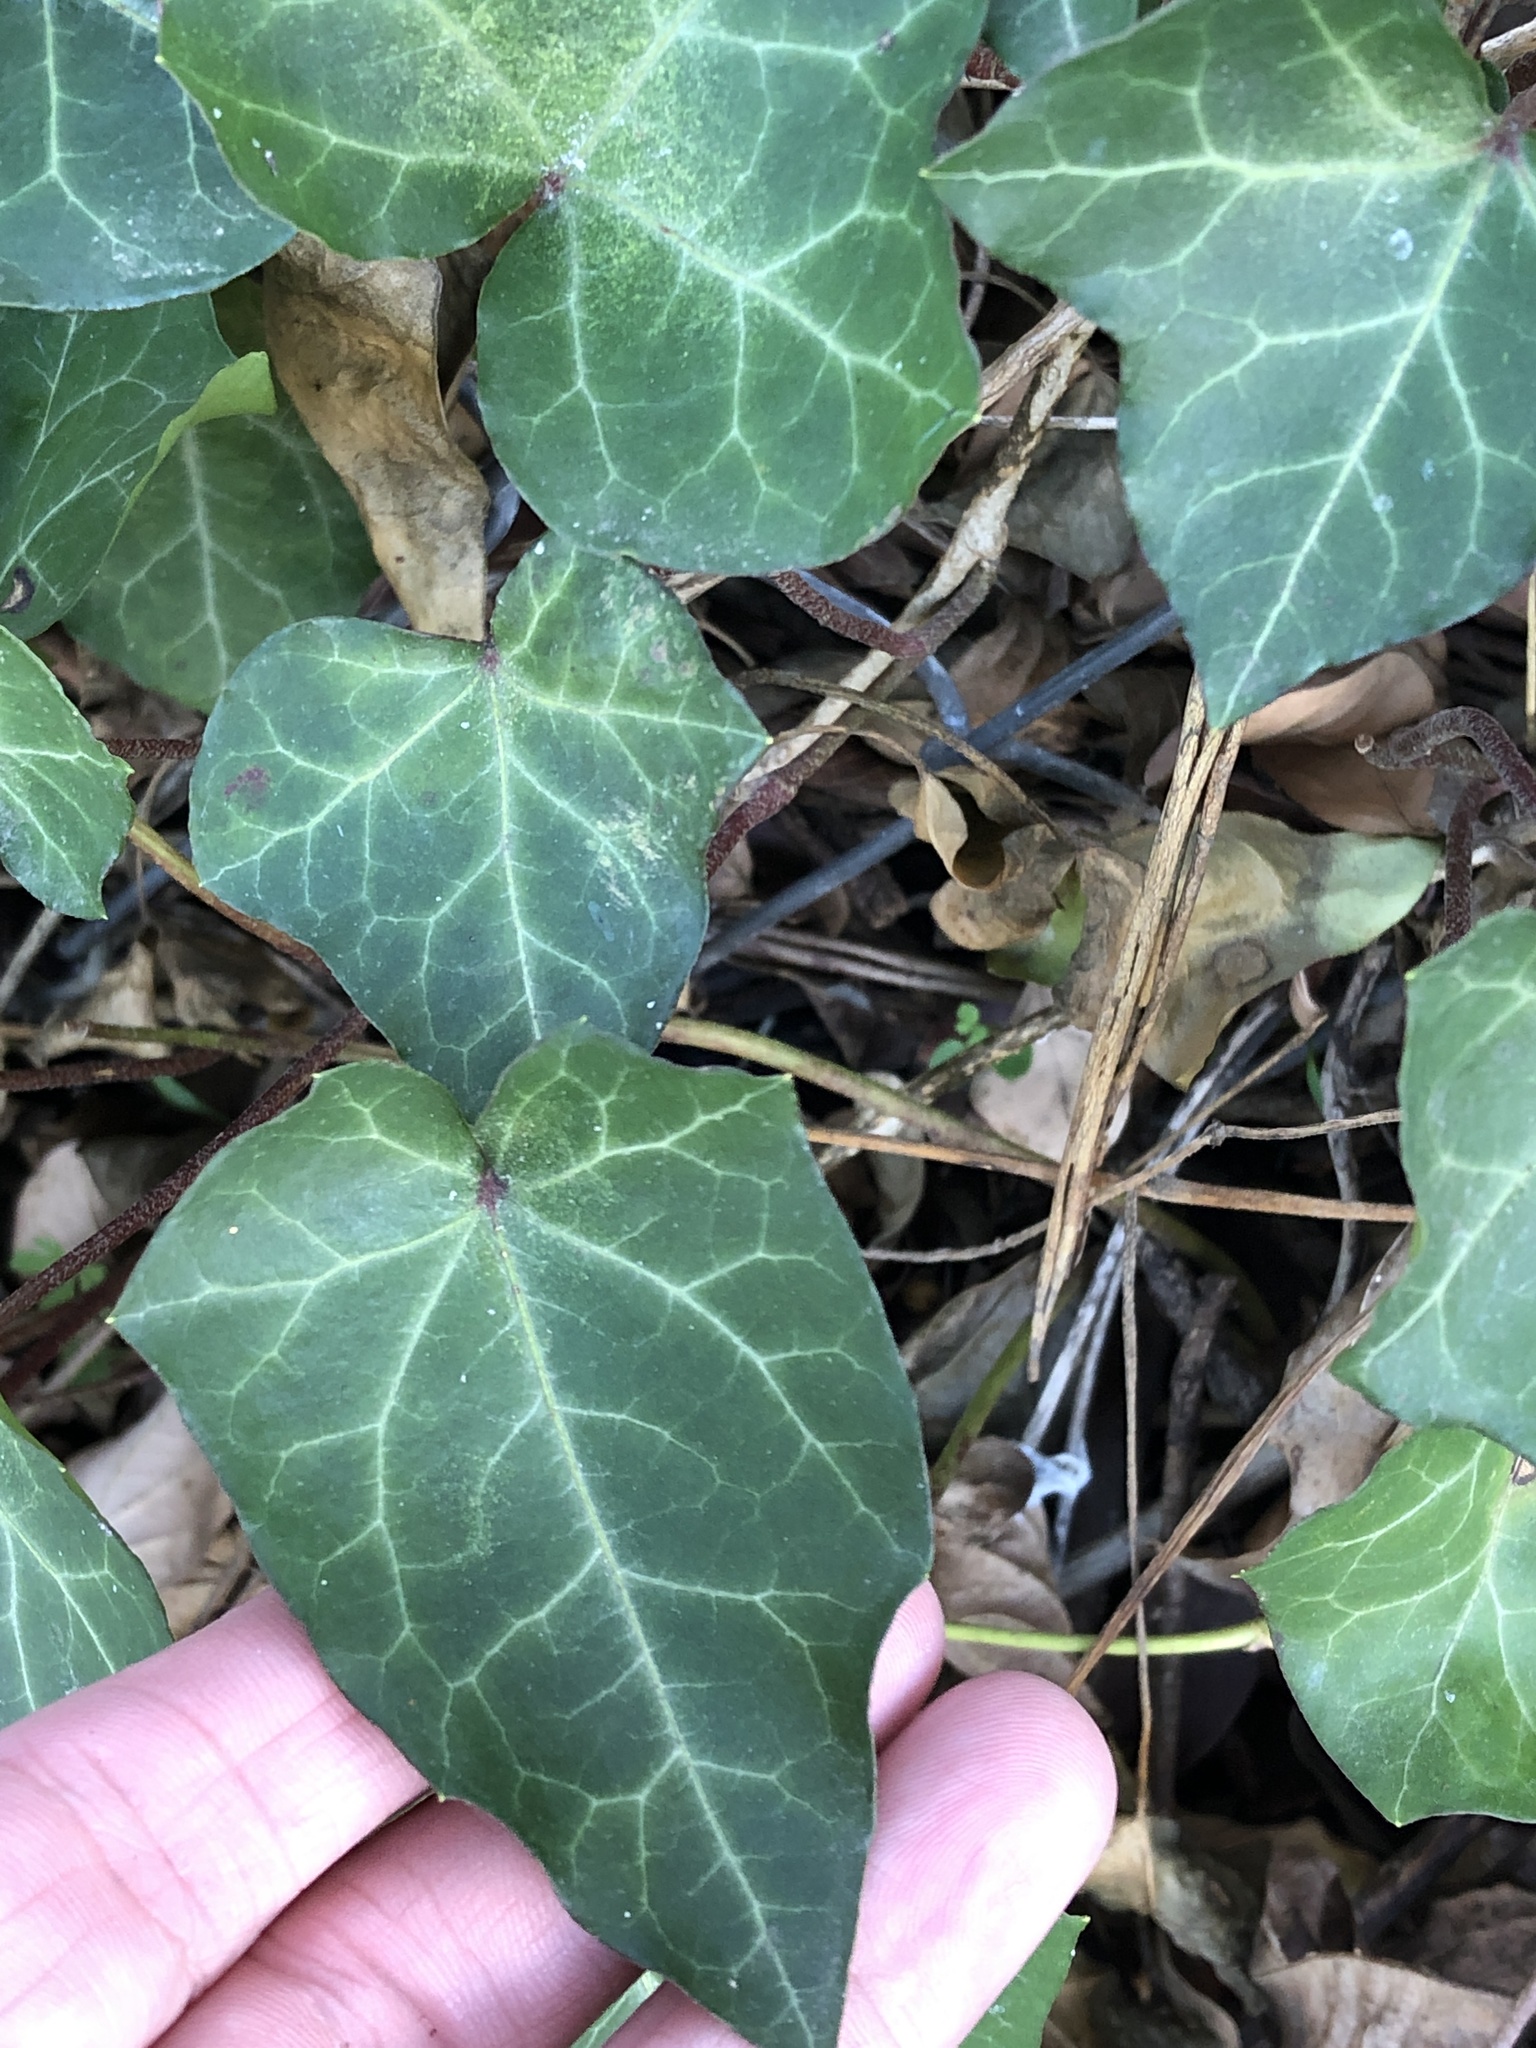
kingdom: Plantae
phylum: Tracheophyta
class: Magnoliopsida
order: Apiales
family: Araliaceae
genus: Hedera
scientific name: Hedera helix
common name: Ivy
